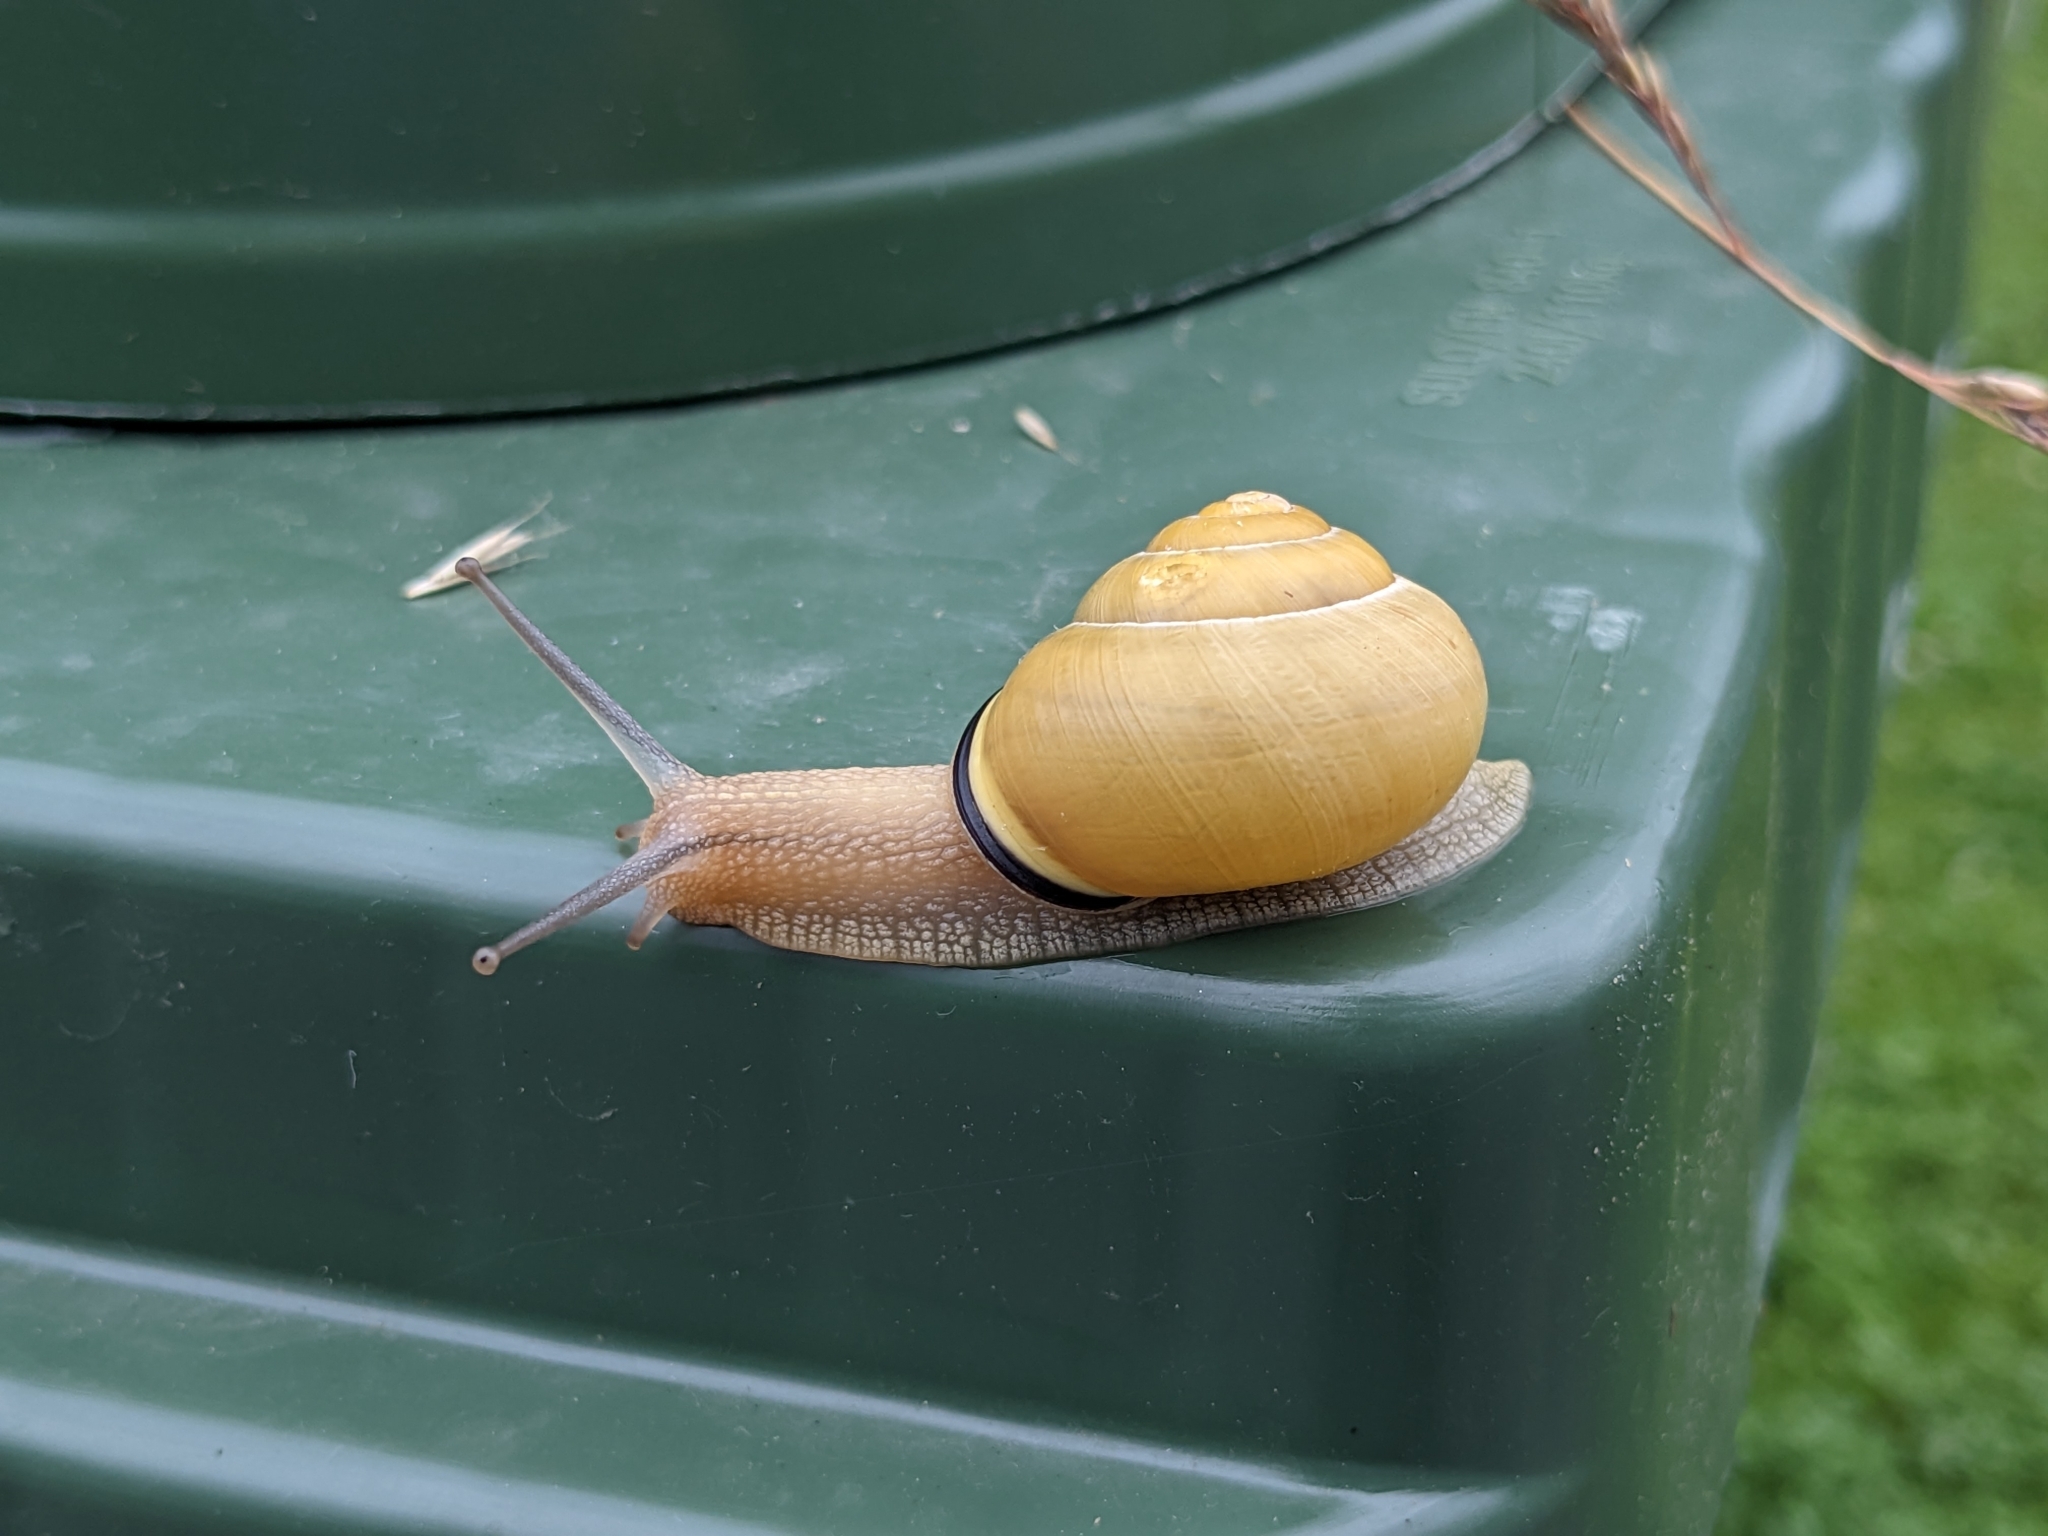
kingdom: Animalia
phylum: Mollusca
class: Gastropoda
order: Stylommatophora
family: Helicidae
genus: Cepaea
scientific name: Cepaea nemoralis
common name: Grovesnail
